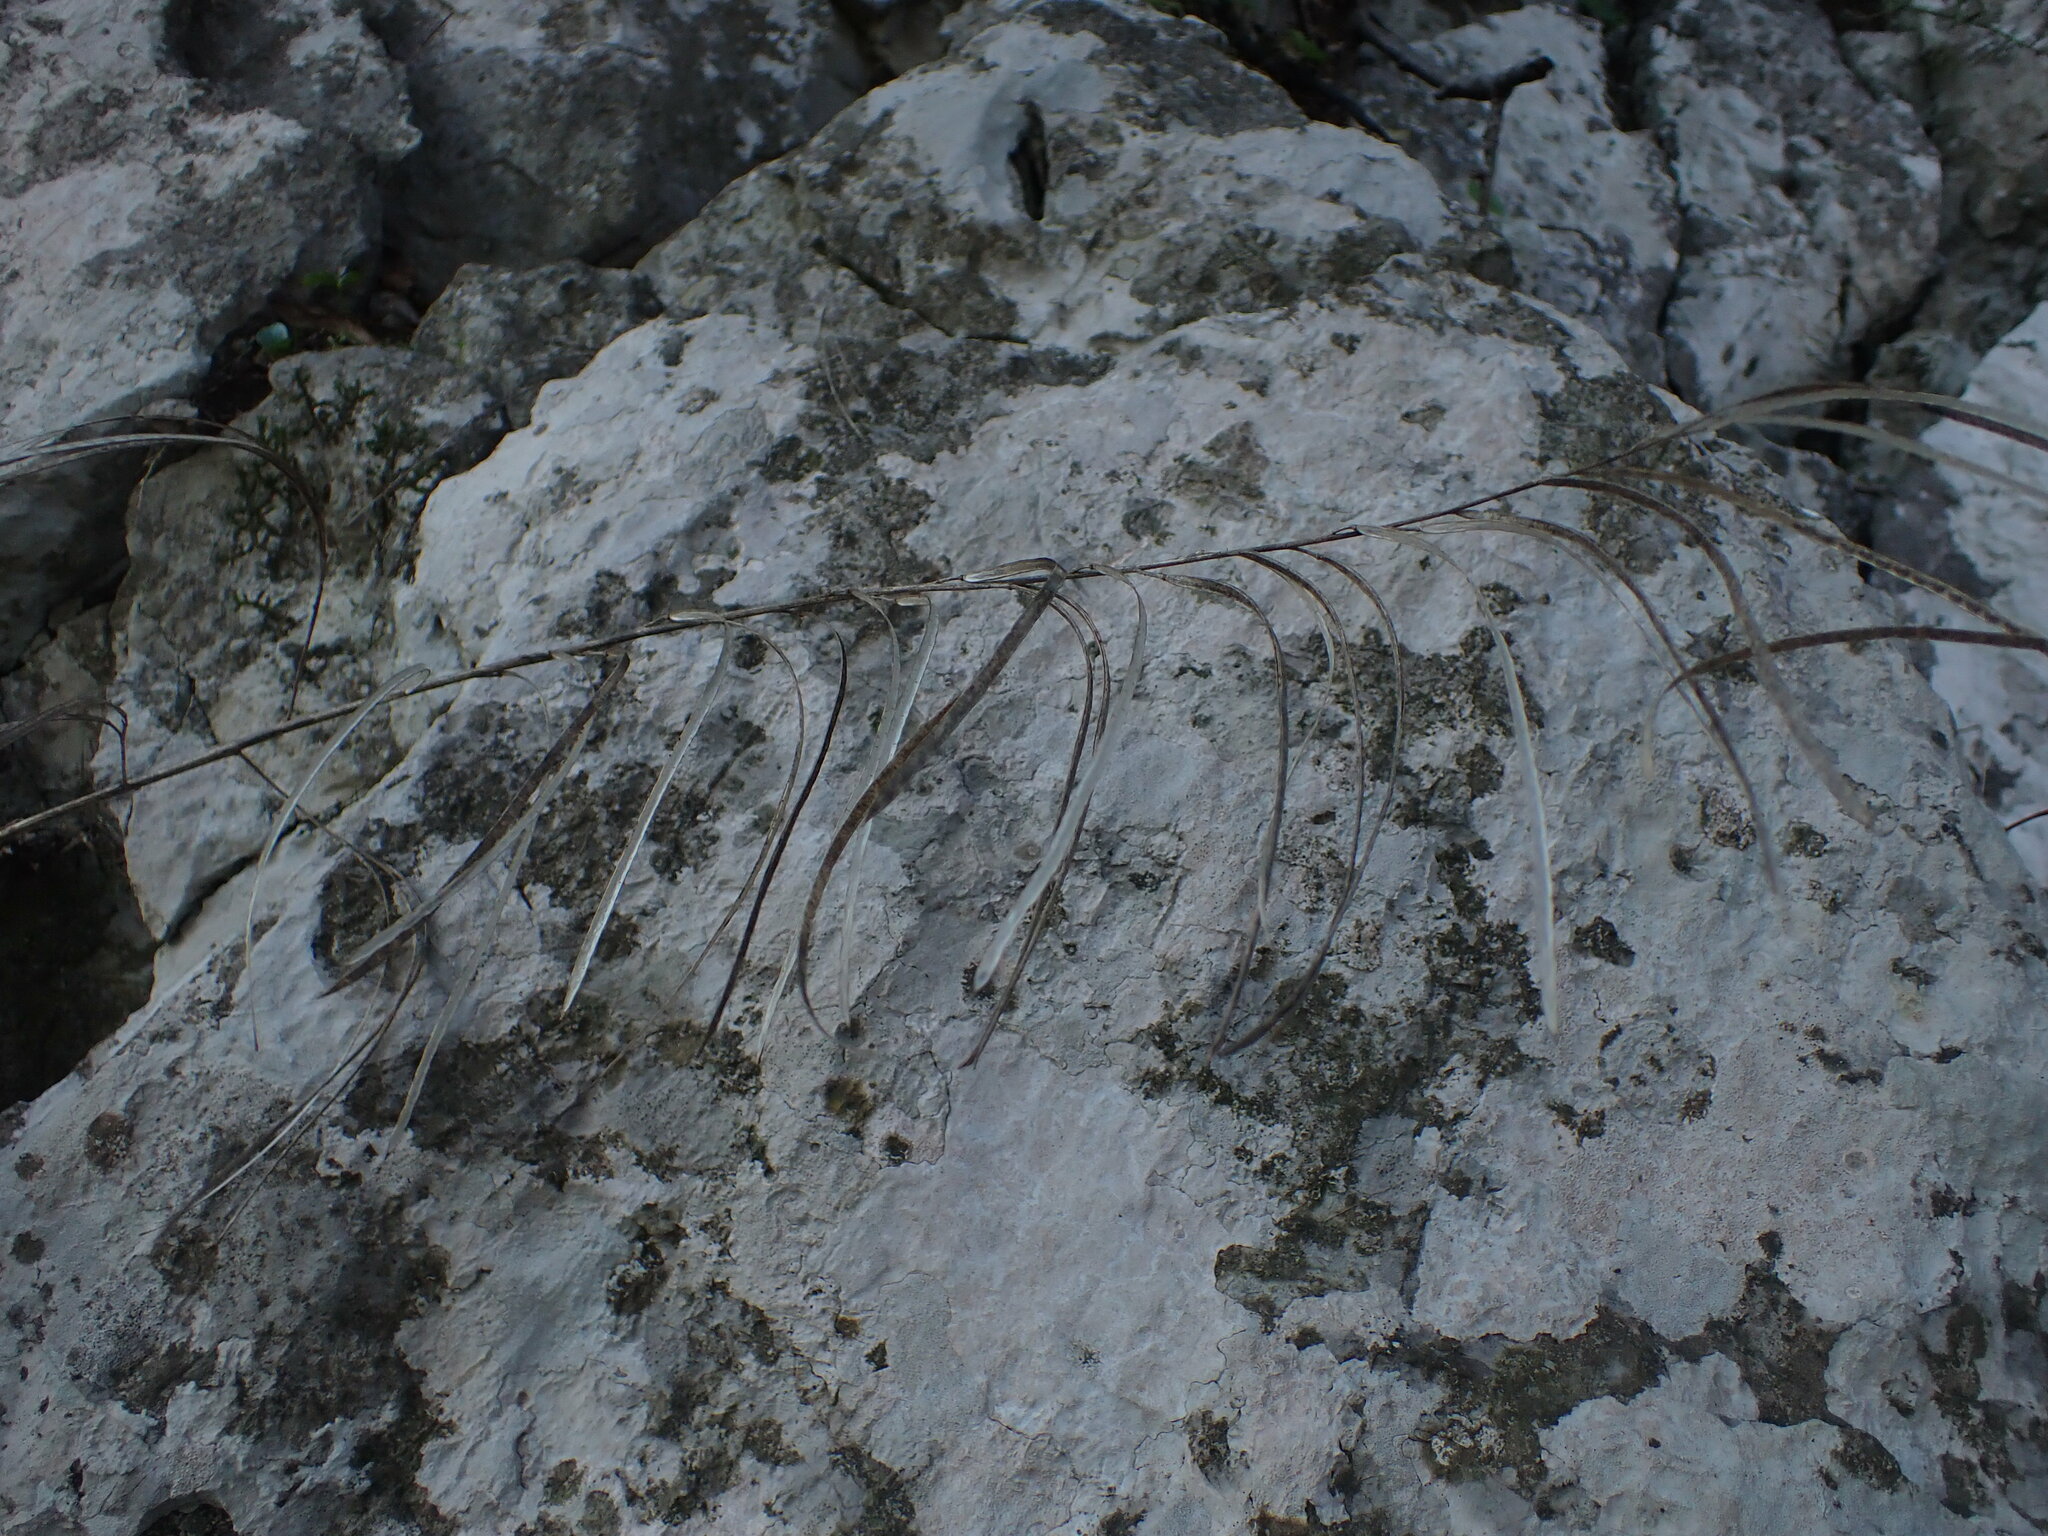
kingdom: Plantae
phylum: Tracheophyta
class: Magnoliopsida
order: Brassicales
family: Brassicaceae
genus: Pseudoturritis
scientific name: Pseudoturritis turrita
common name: Tower cress
